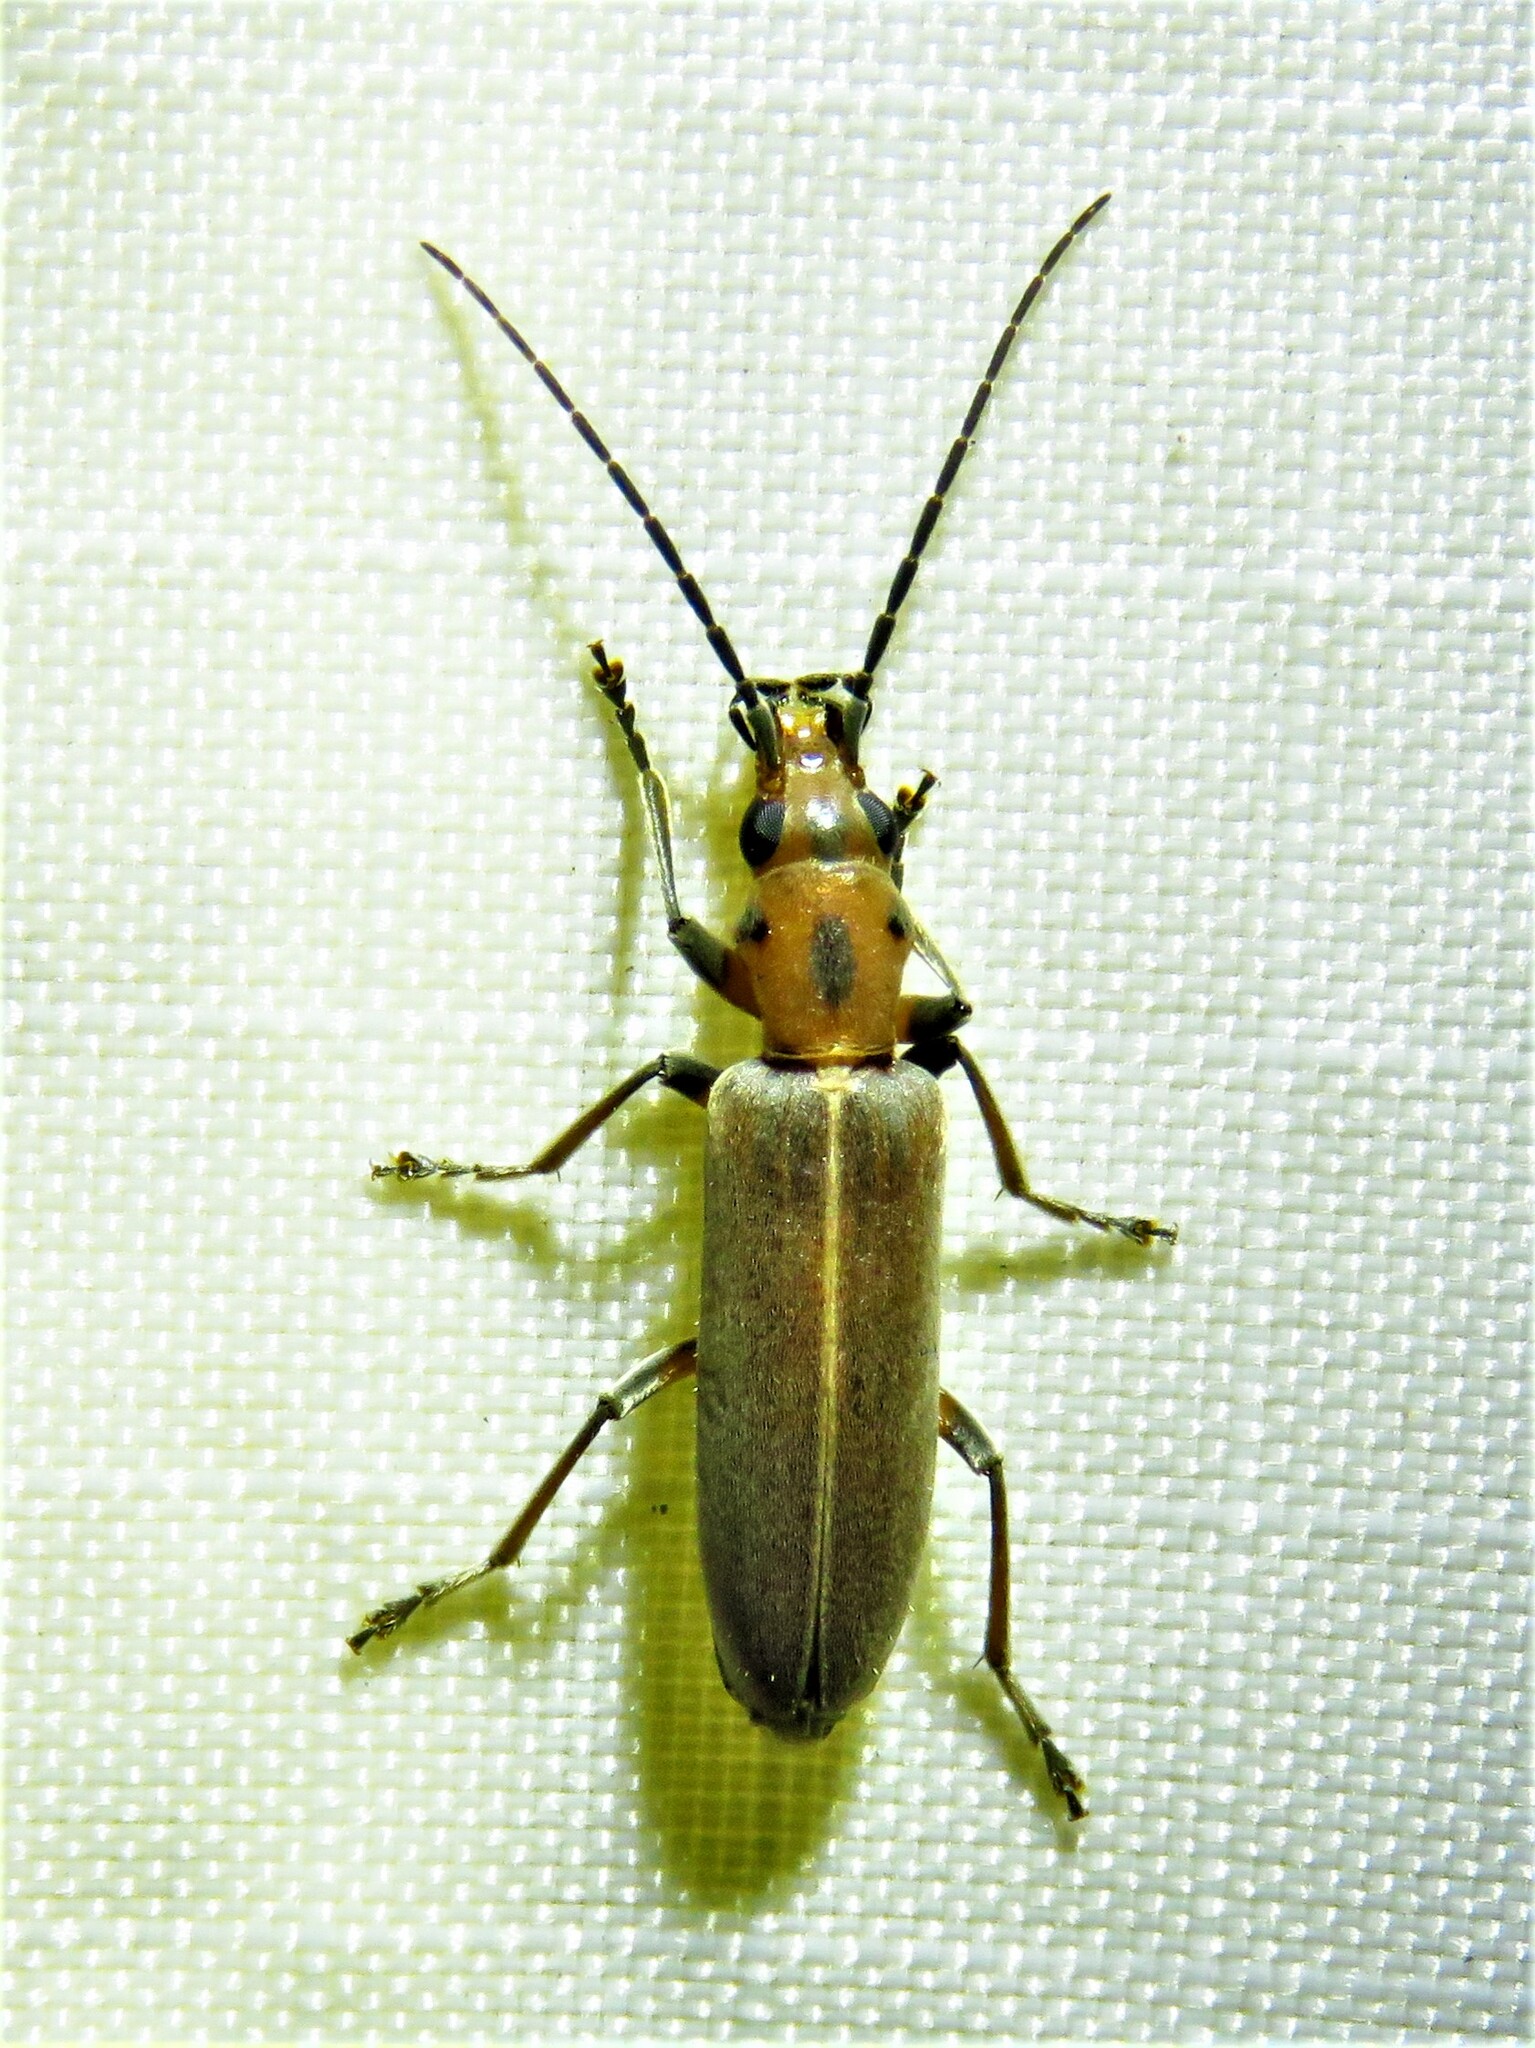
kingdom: Animalia
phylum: Arthropoda
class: Insecta
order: Coleoptera
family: Oedemeridae
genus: Oxacis
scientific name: Oxacis trimaculata
